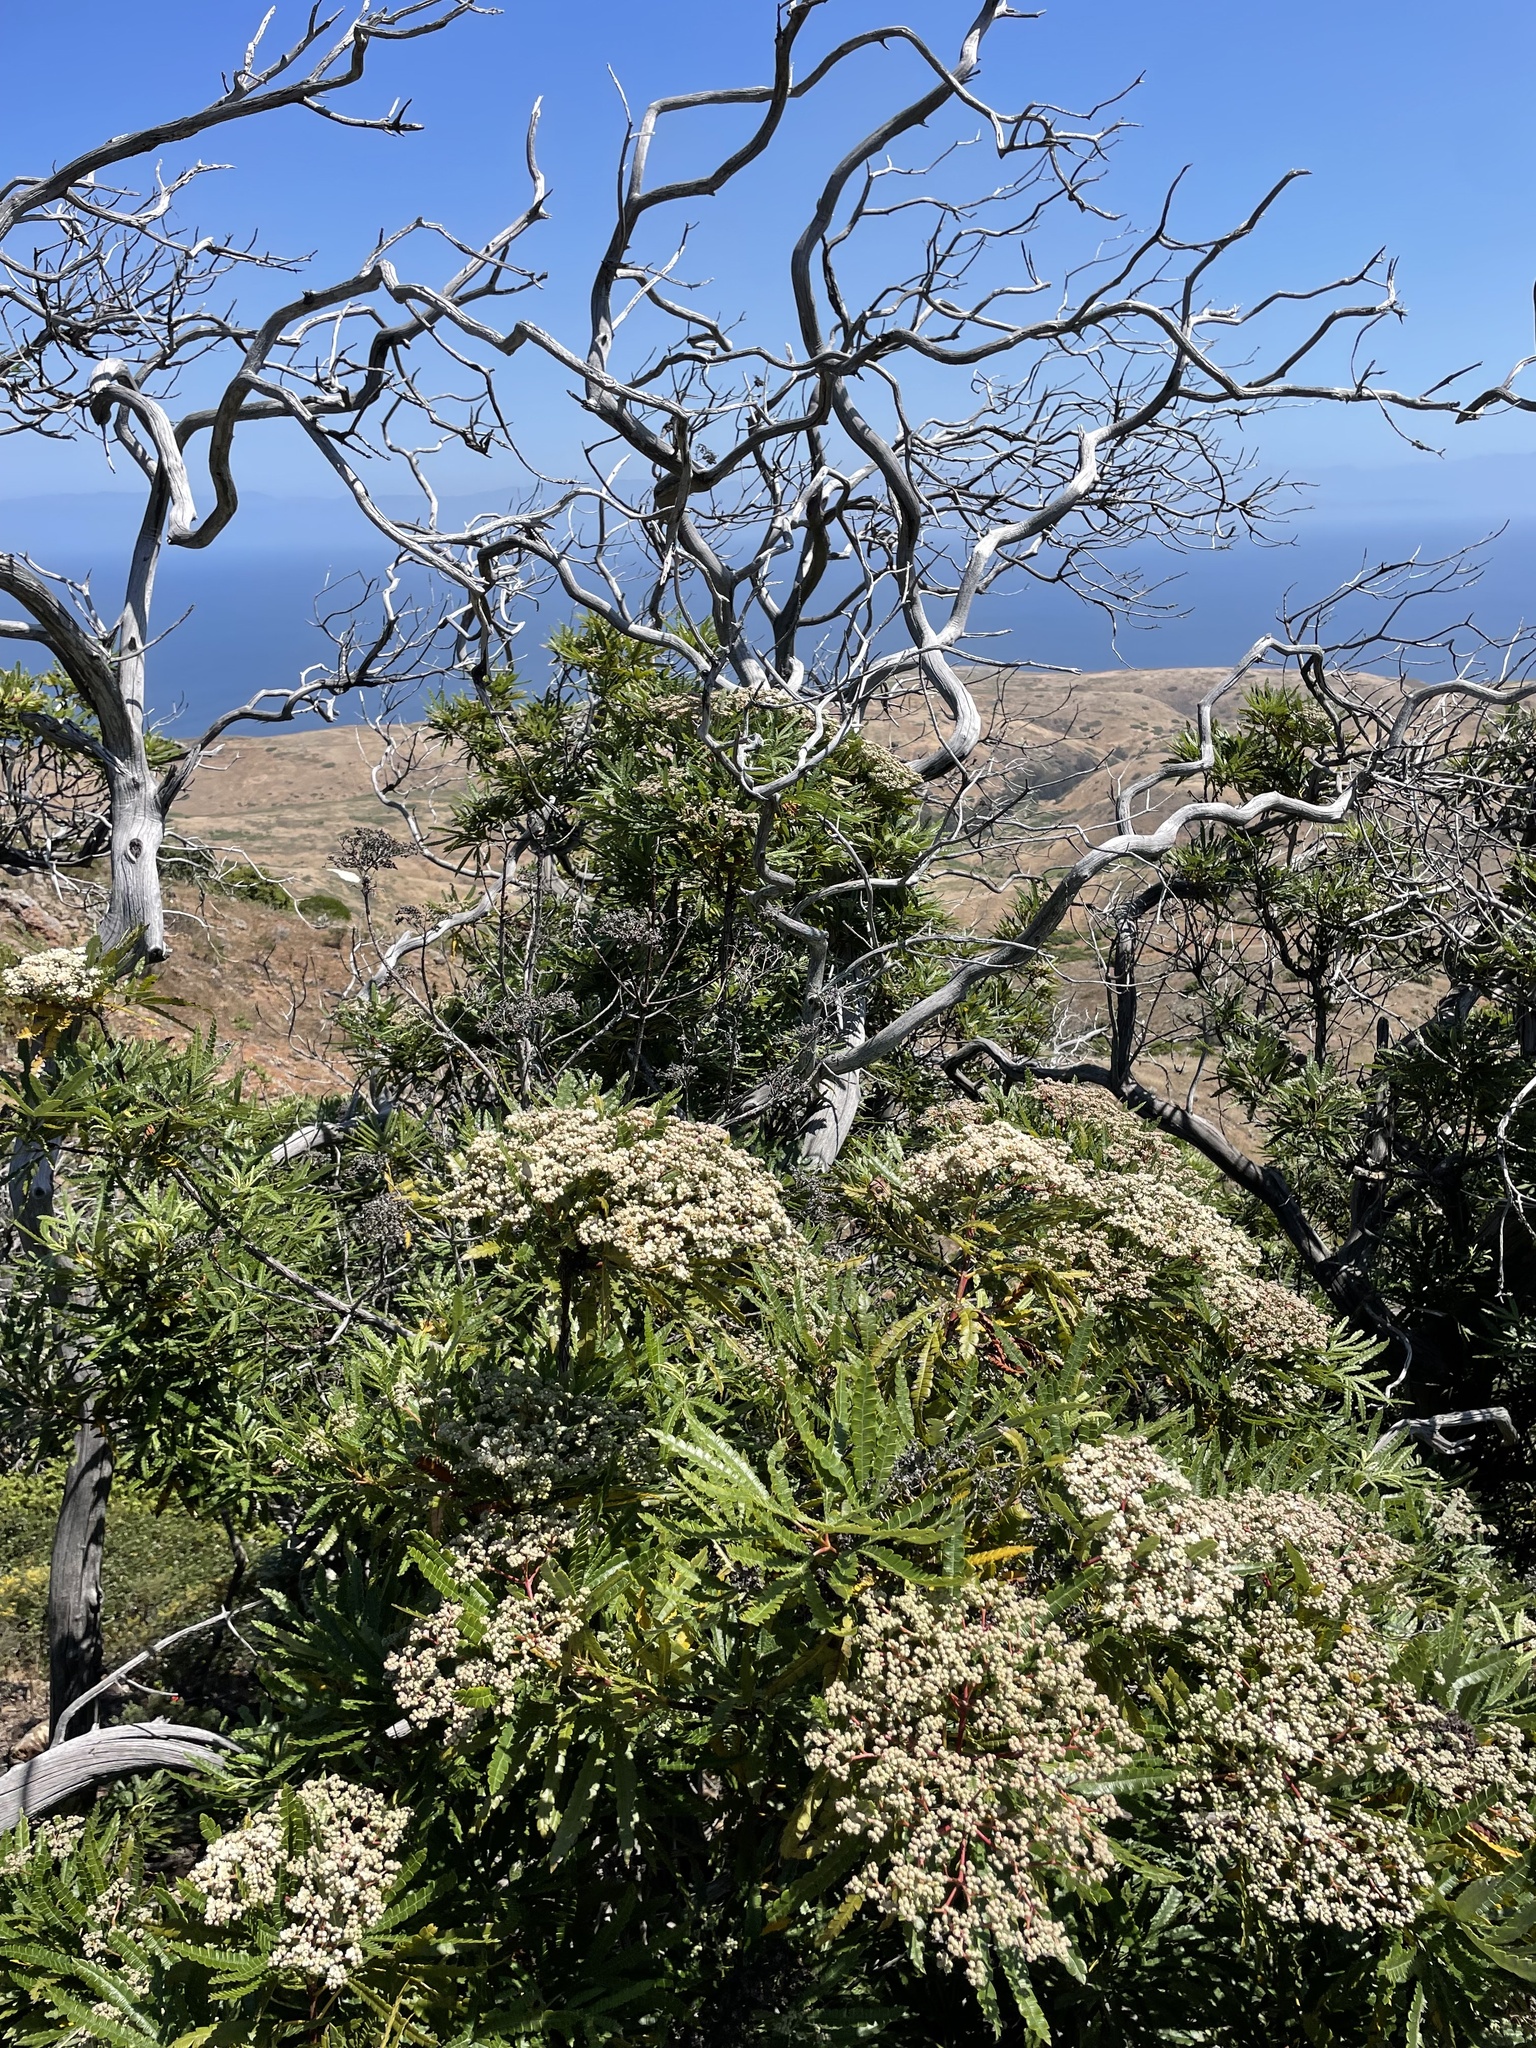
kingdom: Plantae
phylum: Tracheophyta
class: Magnoliopsida
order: Rosales
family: Rosaceae
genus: Lyonothamnus
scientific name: Lyonothamnus floribundus
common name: Catalina ironwood
